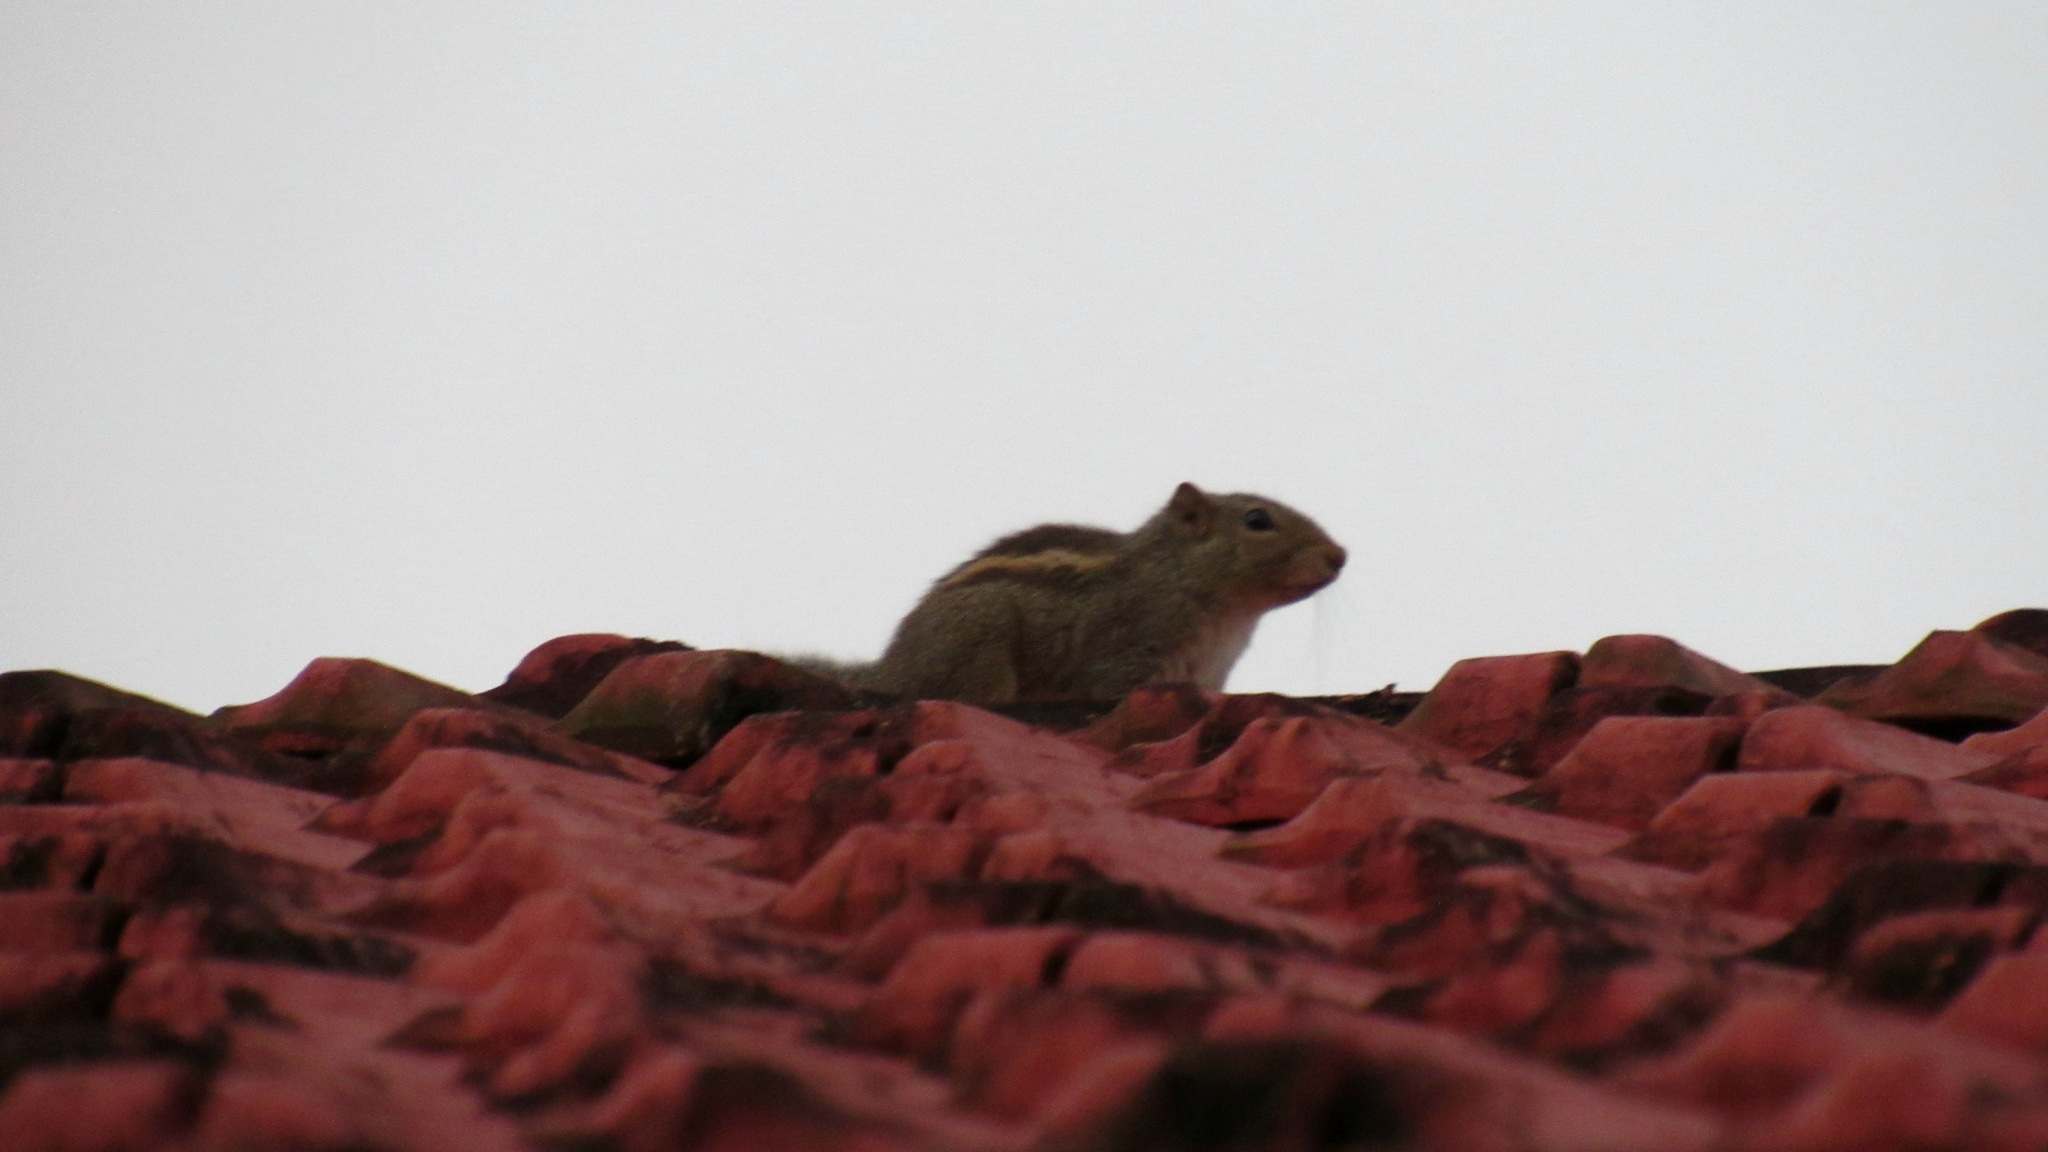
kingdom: Animalia
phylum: Chordata
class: Mammalia
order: Rodentia
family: Sciuridae
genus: Funambulus
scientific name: Funambulus palmarum
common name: Indian palm squirrel
